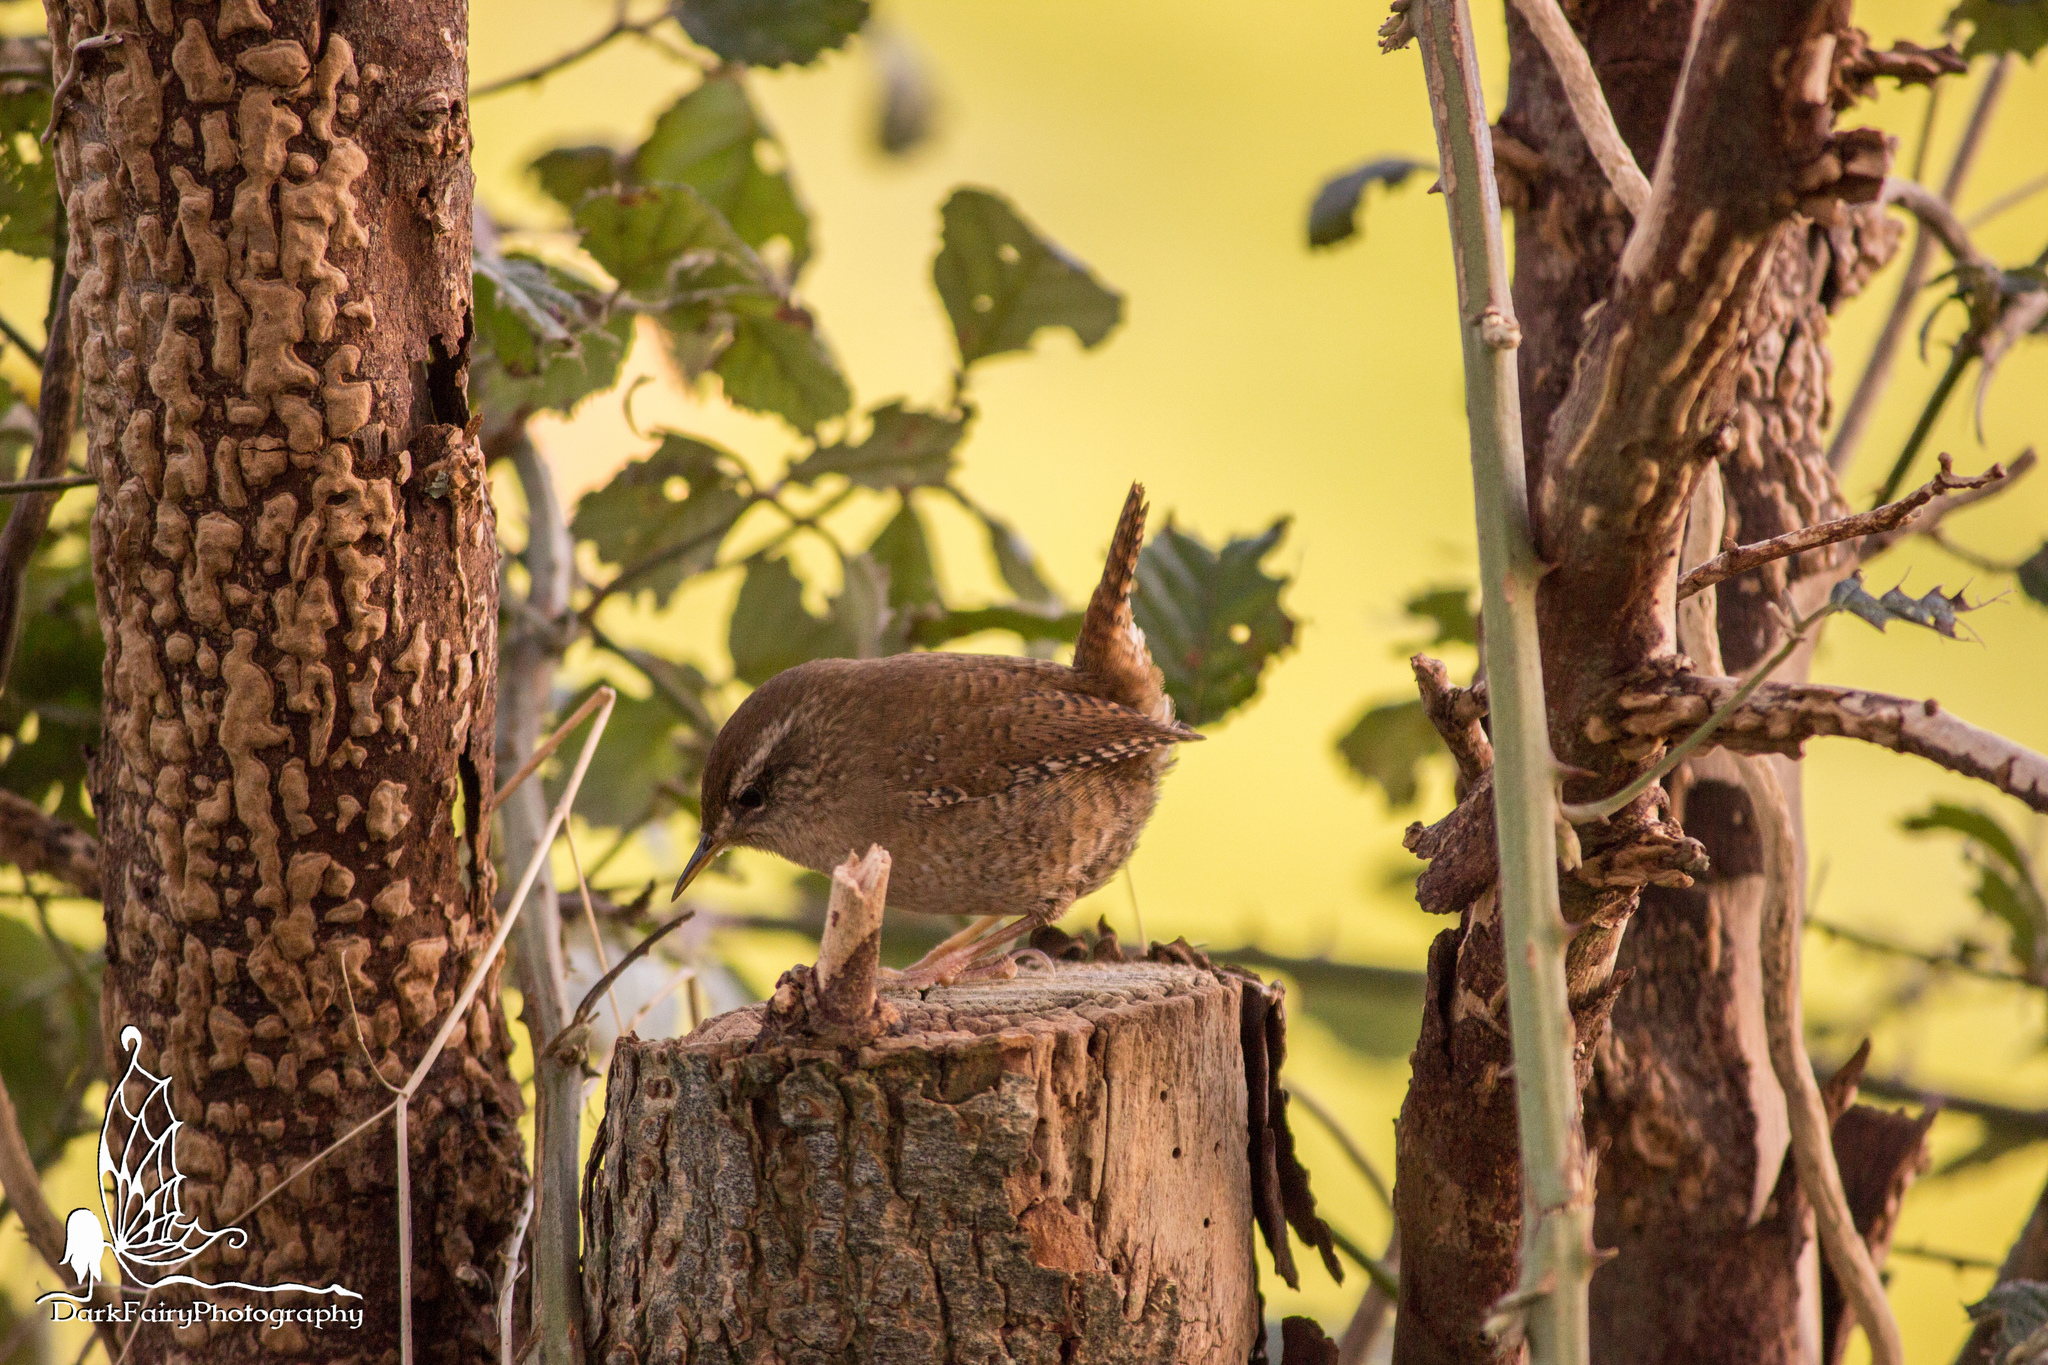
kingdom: Animalia
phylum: Chordata
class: Aves
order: Passeriformes
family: Troglodytidae
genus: Troglodytes
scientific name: Troglodytes troglodytes
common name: Eurasian wren
